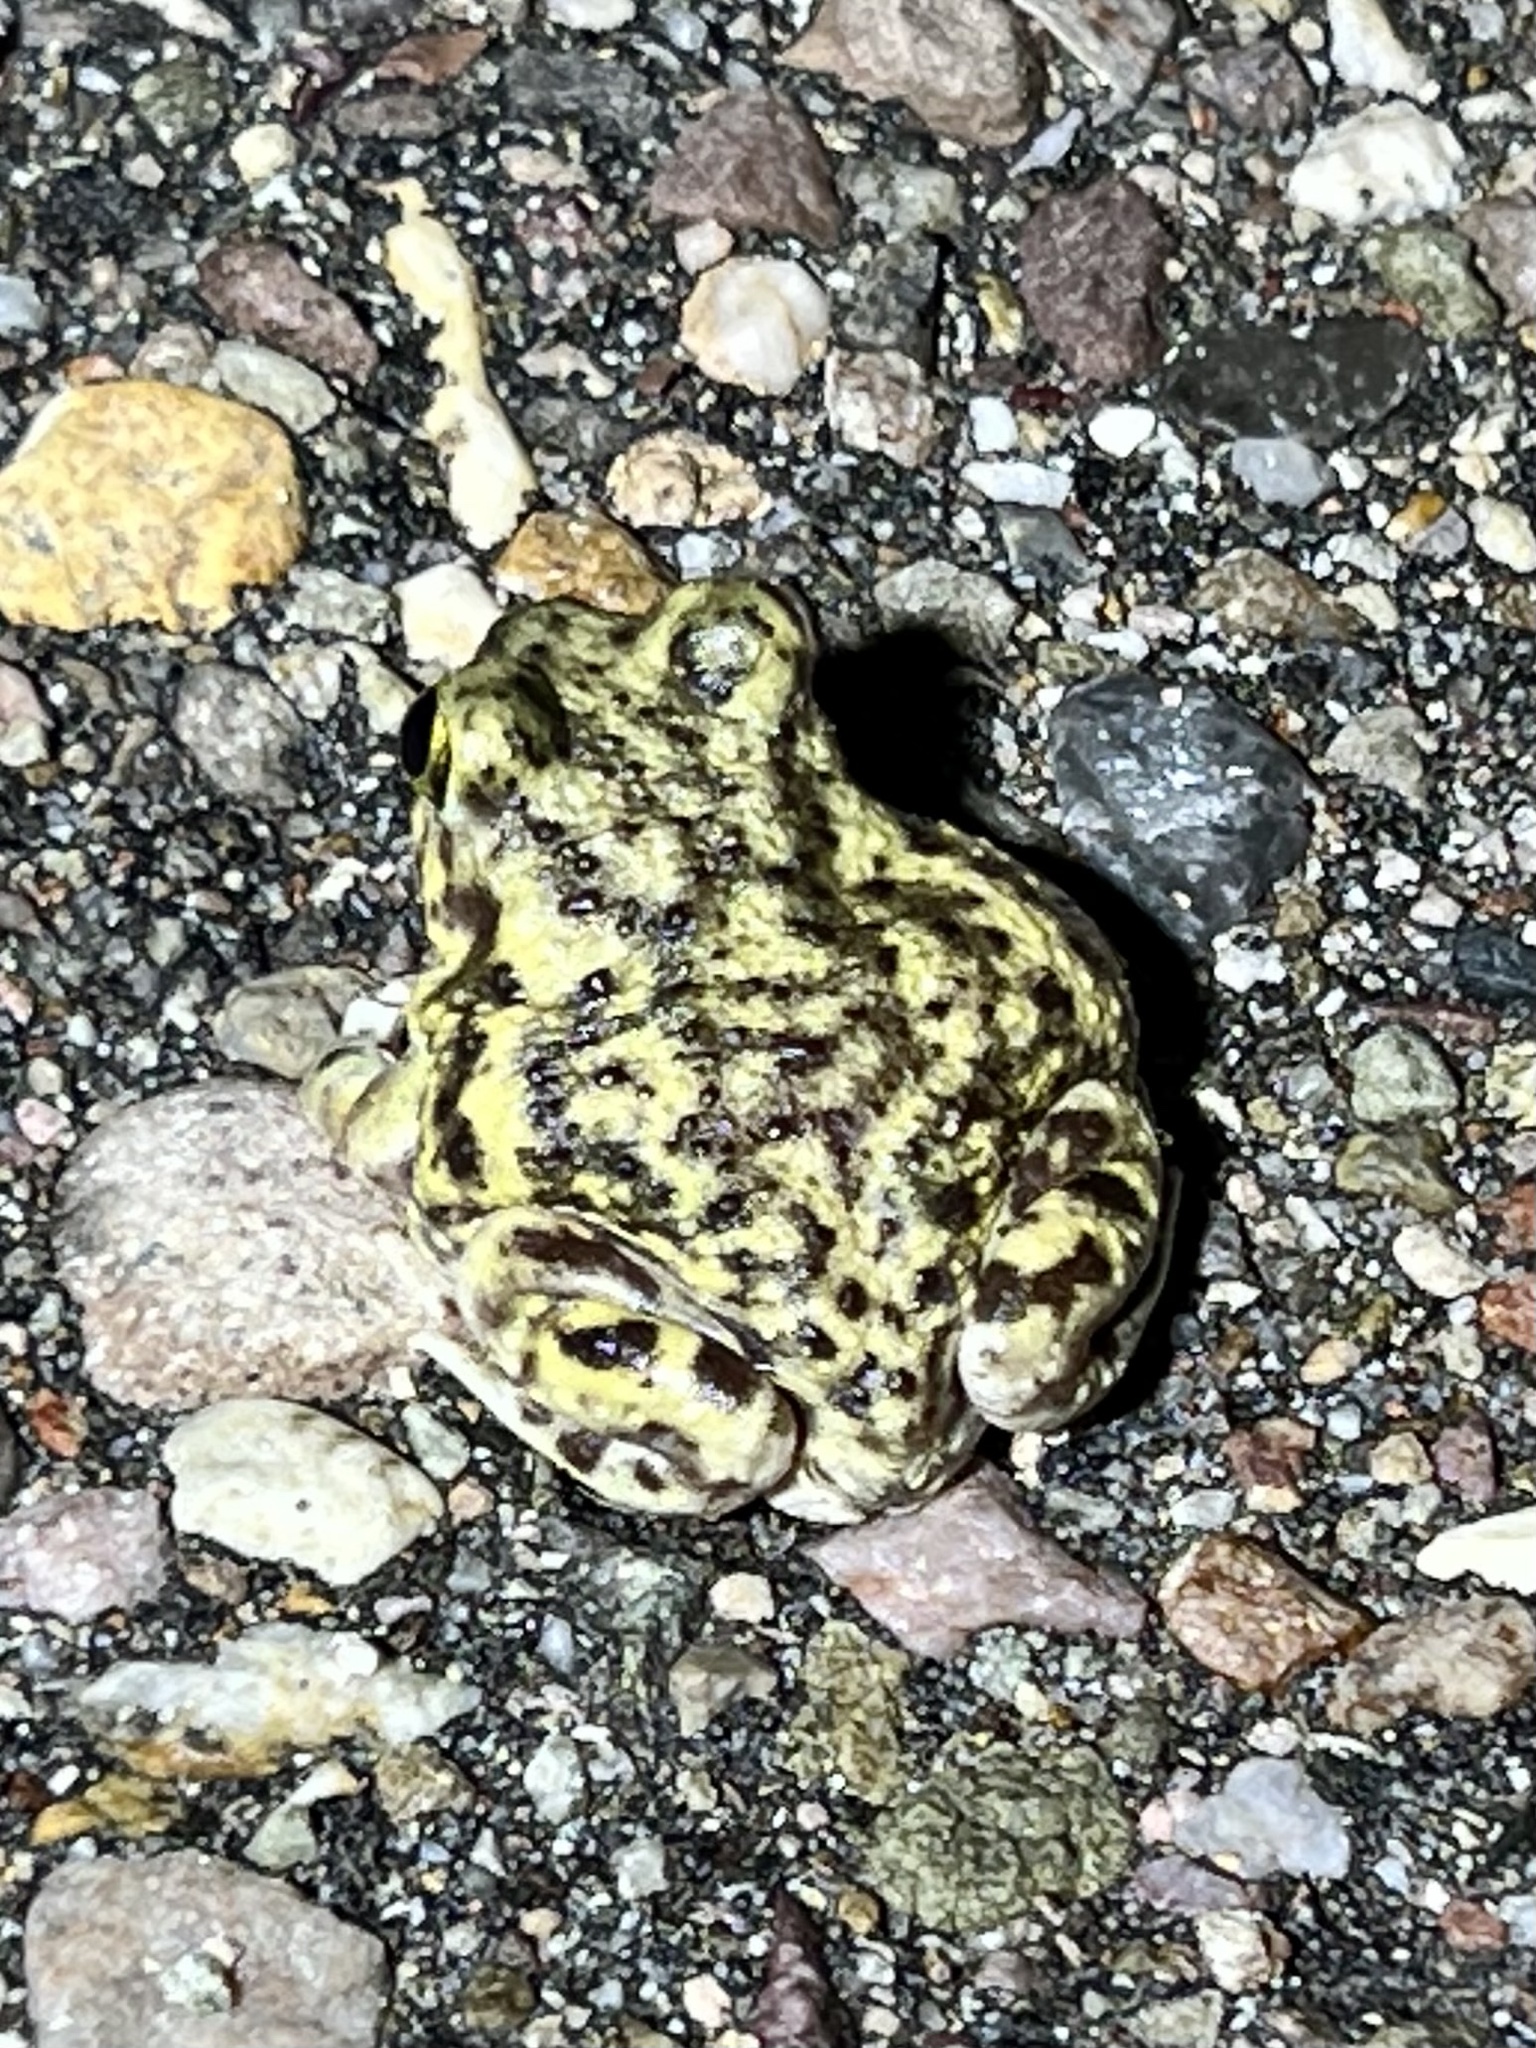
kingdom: Animalia
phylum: Chordata
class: Amphibia
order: Anura
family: Scaphiopodidae
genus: Scaphiopus
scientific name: Scaphiopus couchii
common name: Couch's spadefoot toad
